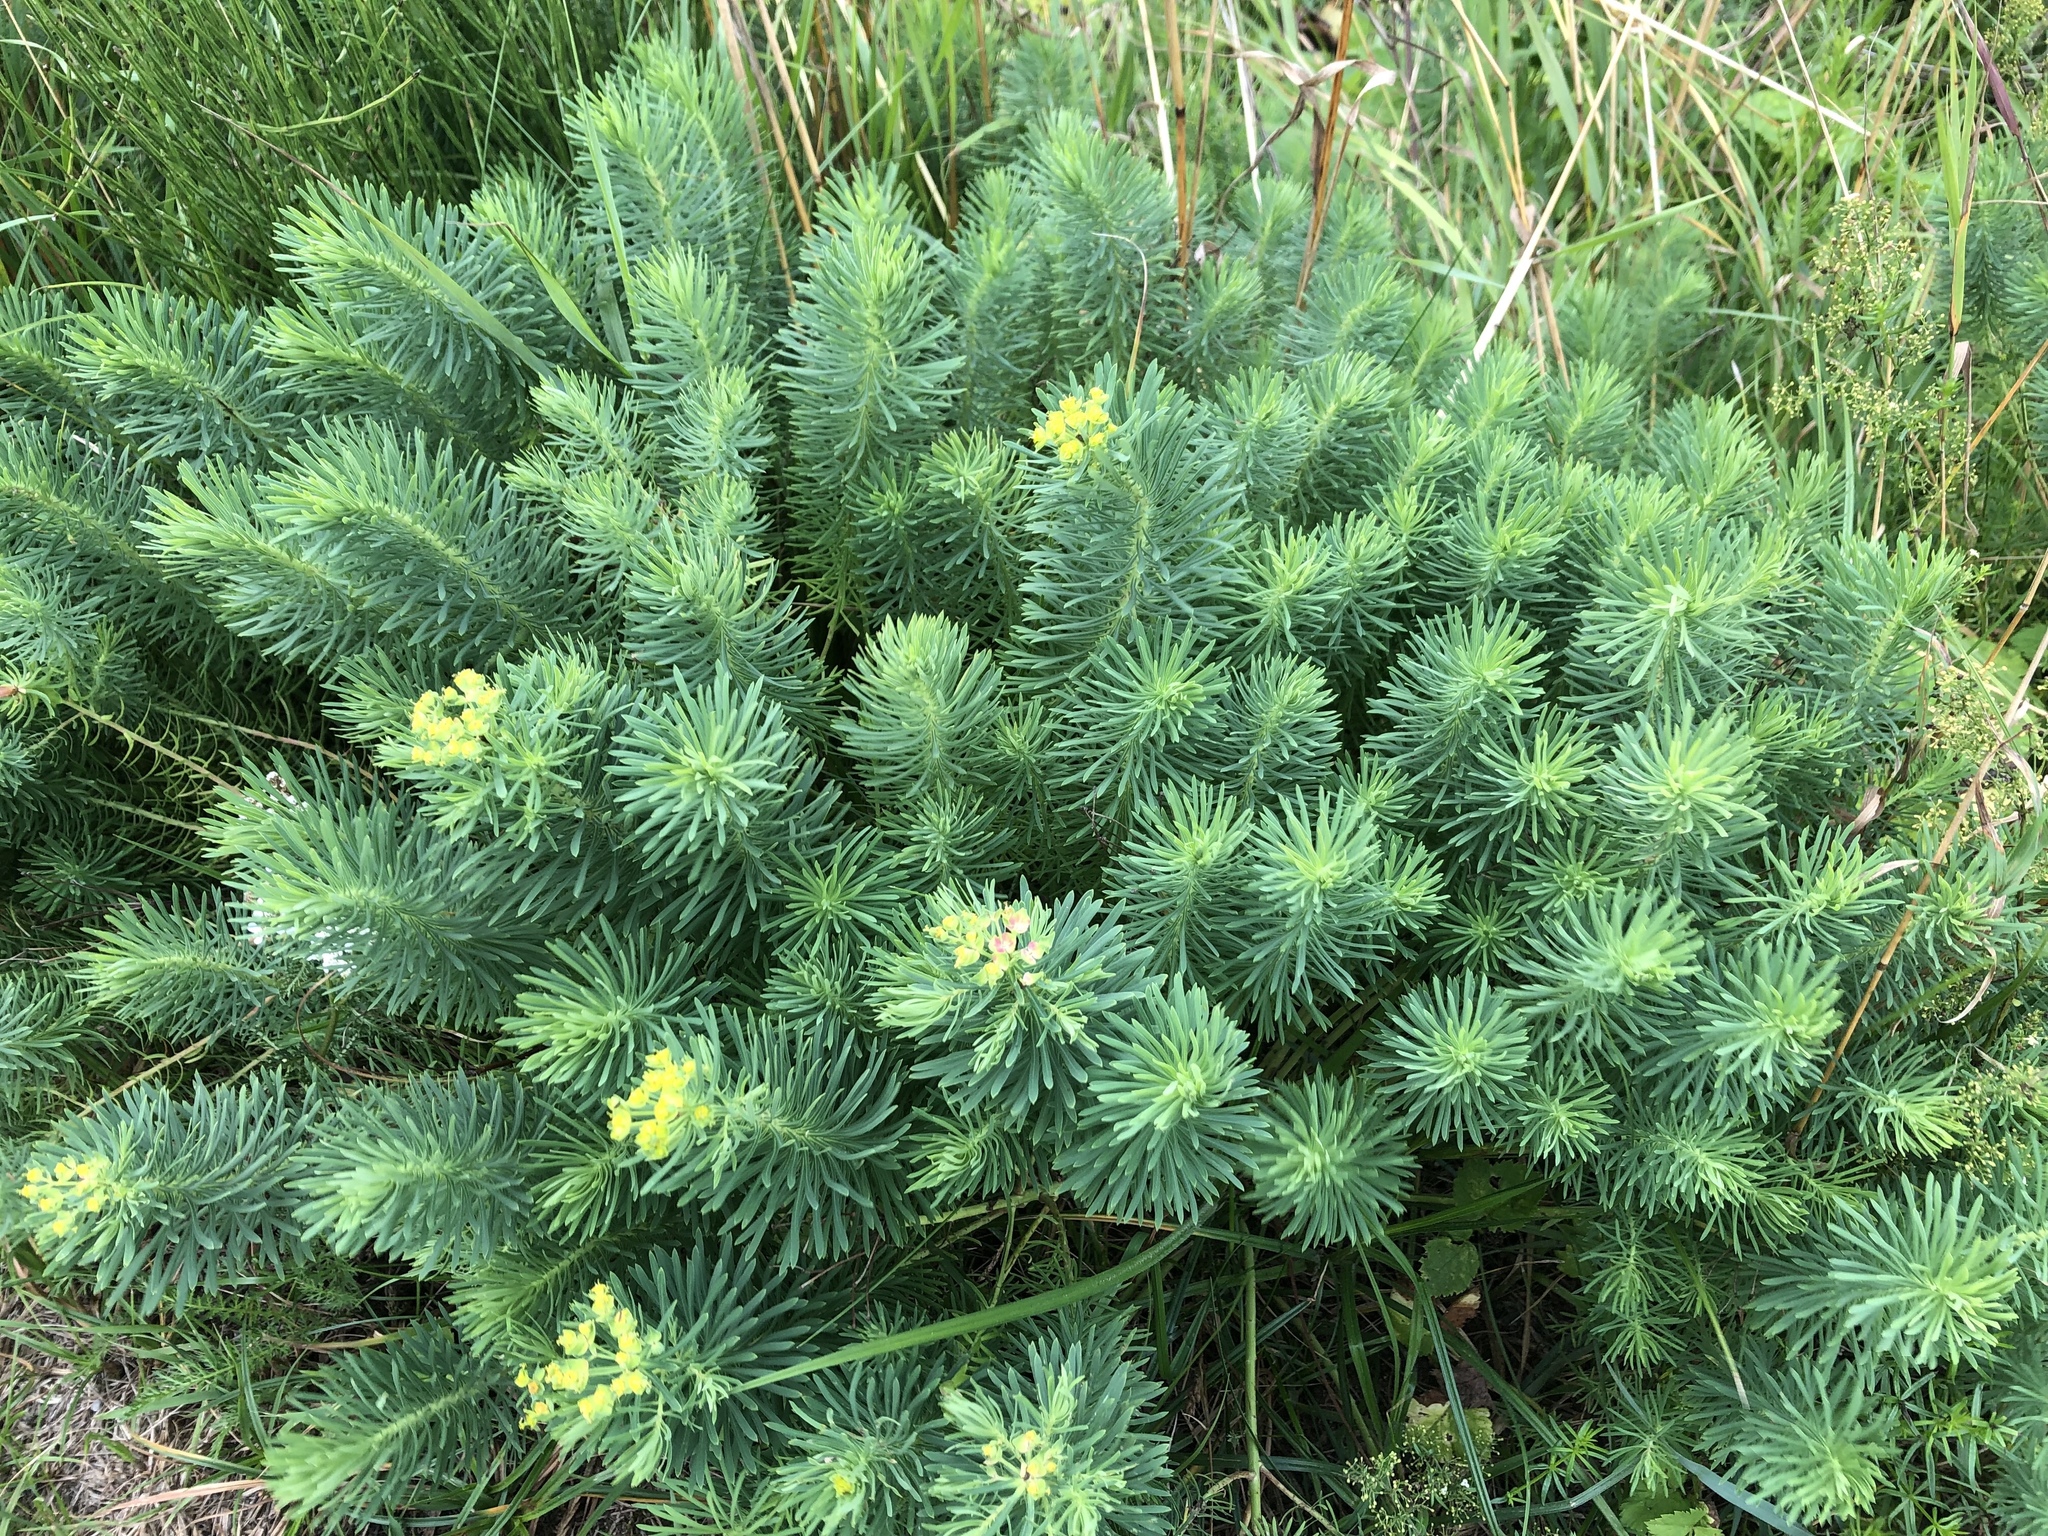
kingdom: Plantae
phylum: Tracheophyta
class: Magnoliopsida
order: Malpighiales
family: Euphorbiaceae
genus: Euphorbia
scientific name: Euphorbia cyparissias
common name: Cypress spurge
